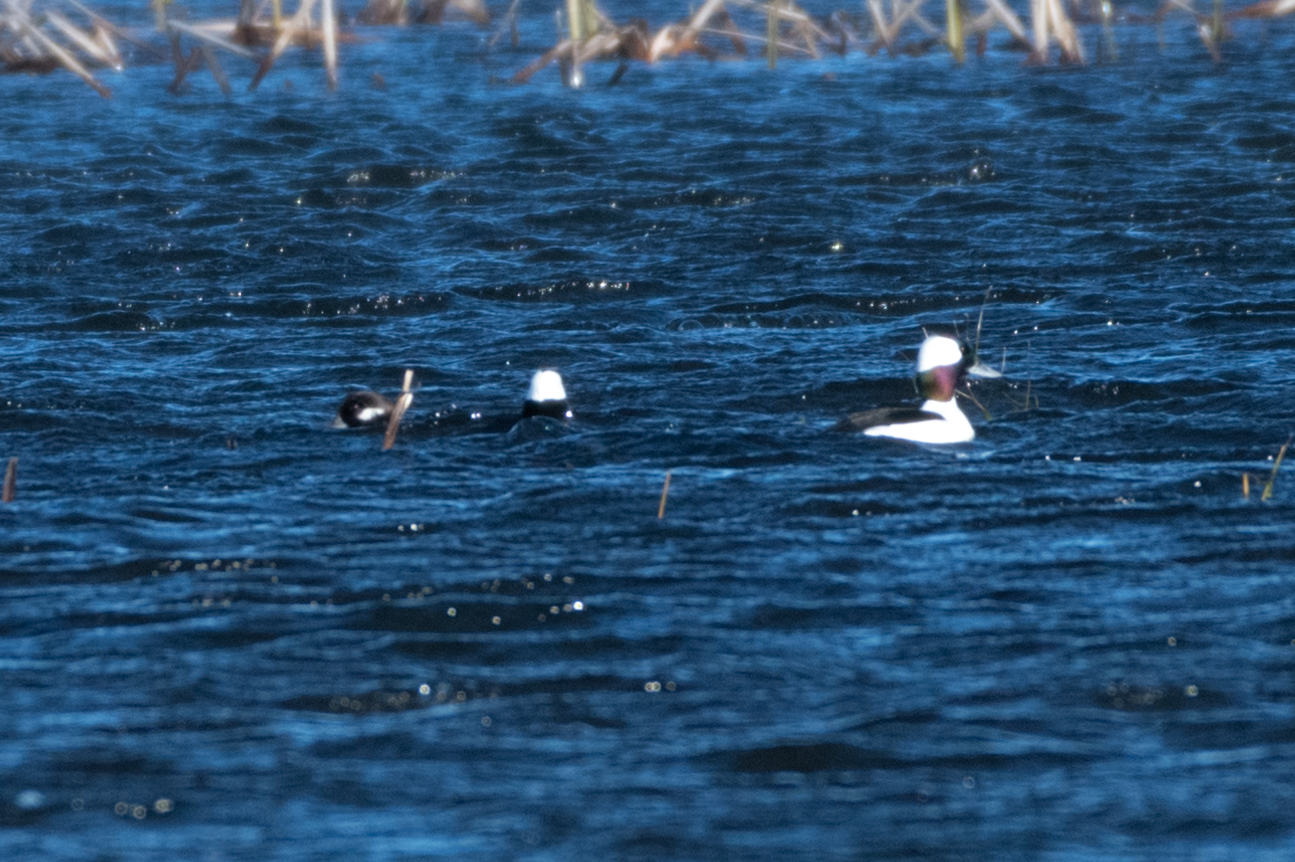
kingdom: Animalia
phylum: Chordata
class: Aves
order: Anseriformes
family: Anatidae
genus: Bucephala
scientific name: Bucephala albeola
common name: Bufflehead
